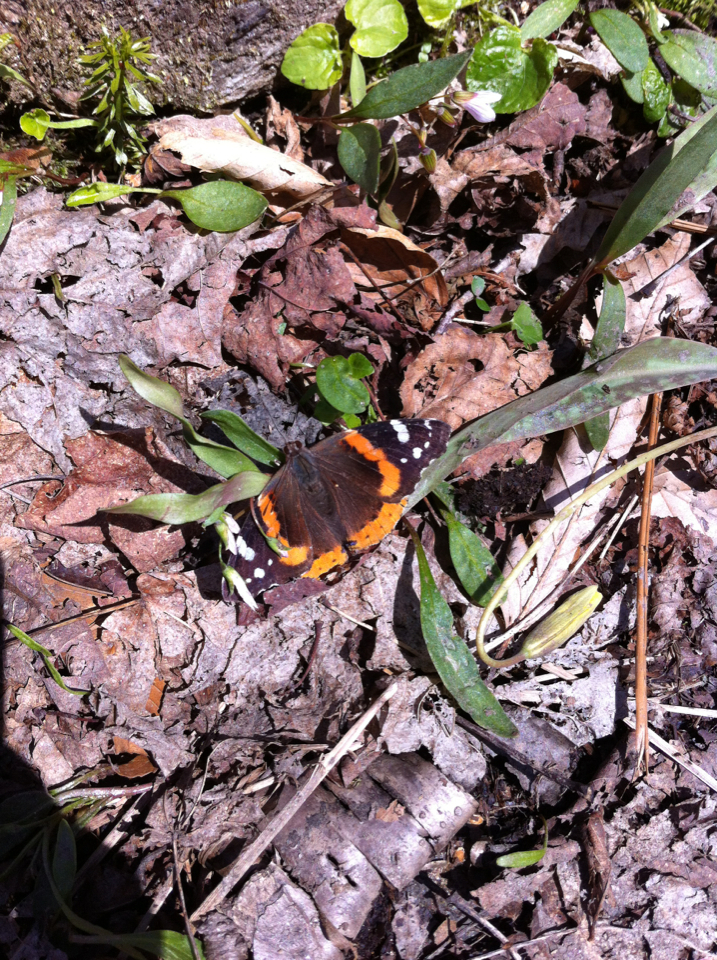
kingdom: Animalia
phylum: Arthropoda
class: Insecta
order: Lepidoptera
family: Nymphalidae
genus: Vanessa
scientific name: Vanessa atalanta
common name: Red admiral
